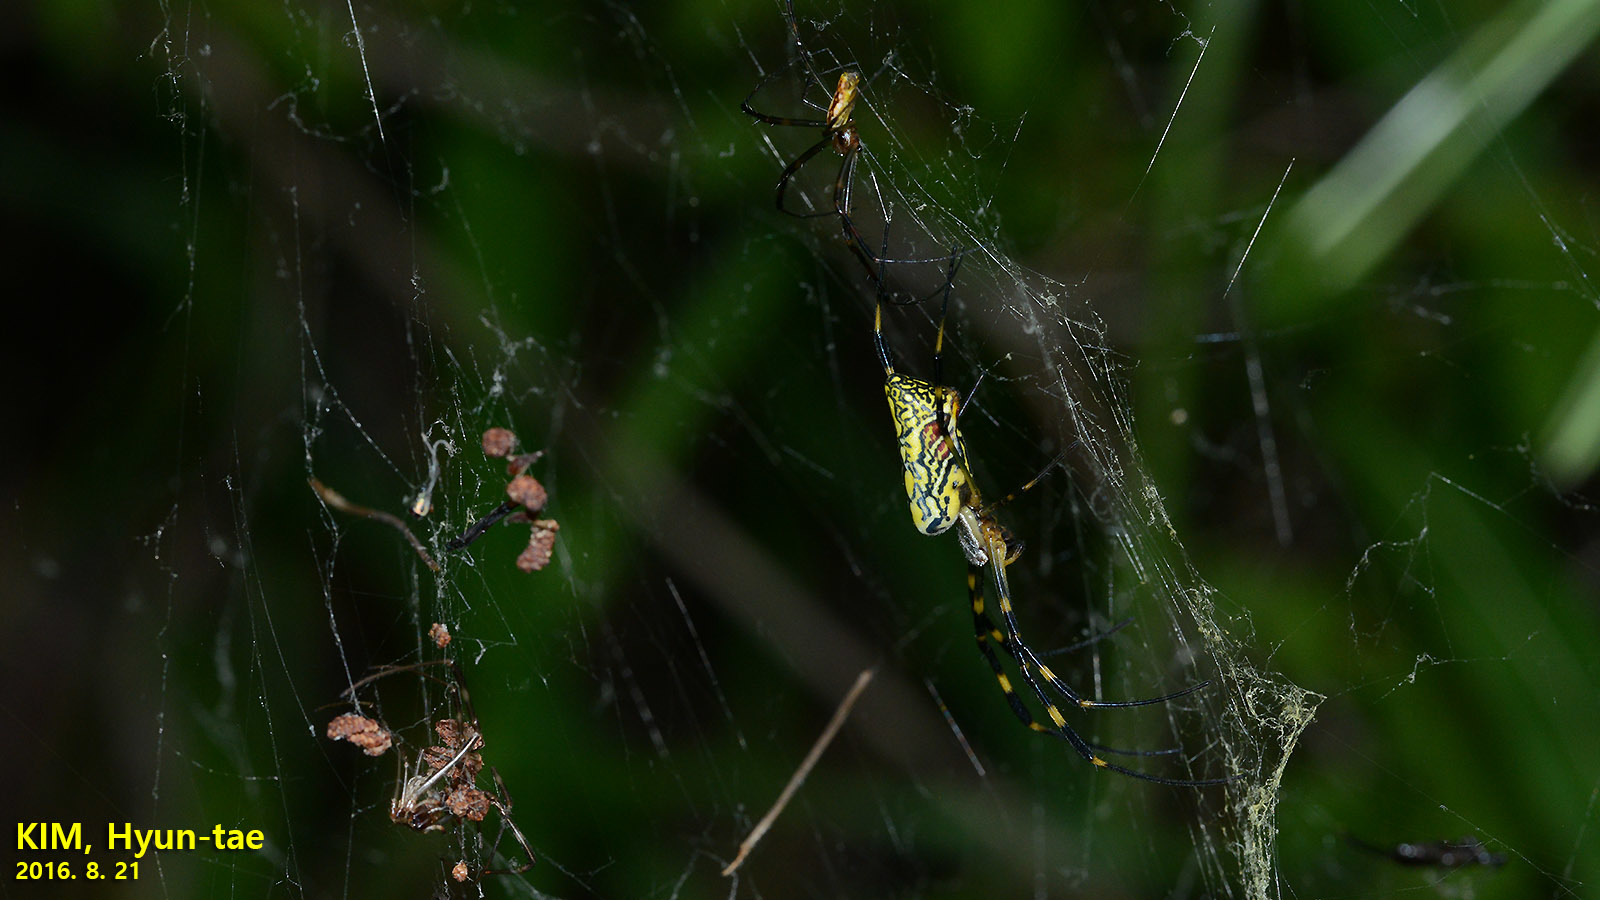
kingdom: Animalia
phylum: Arthropoda
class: Arachnida
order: Araneae
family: Araneidae
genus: Trichonephila
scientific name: Trichonephila clavata
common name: Jorō spider
